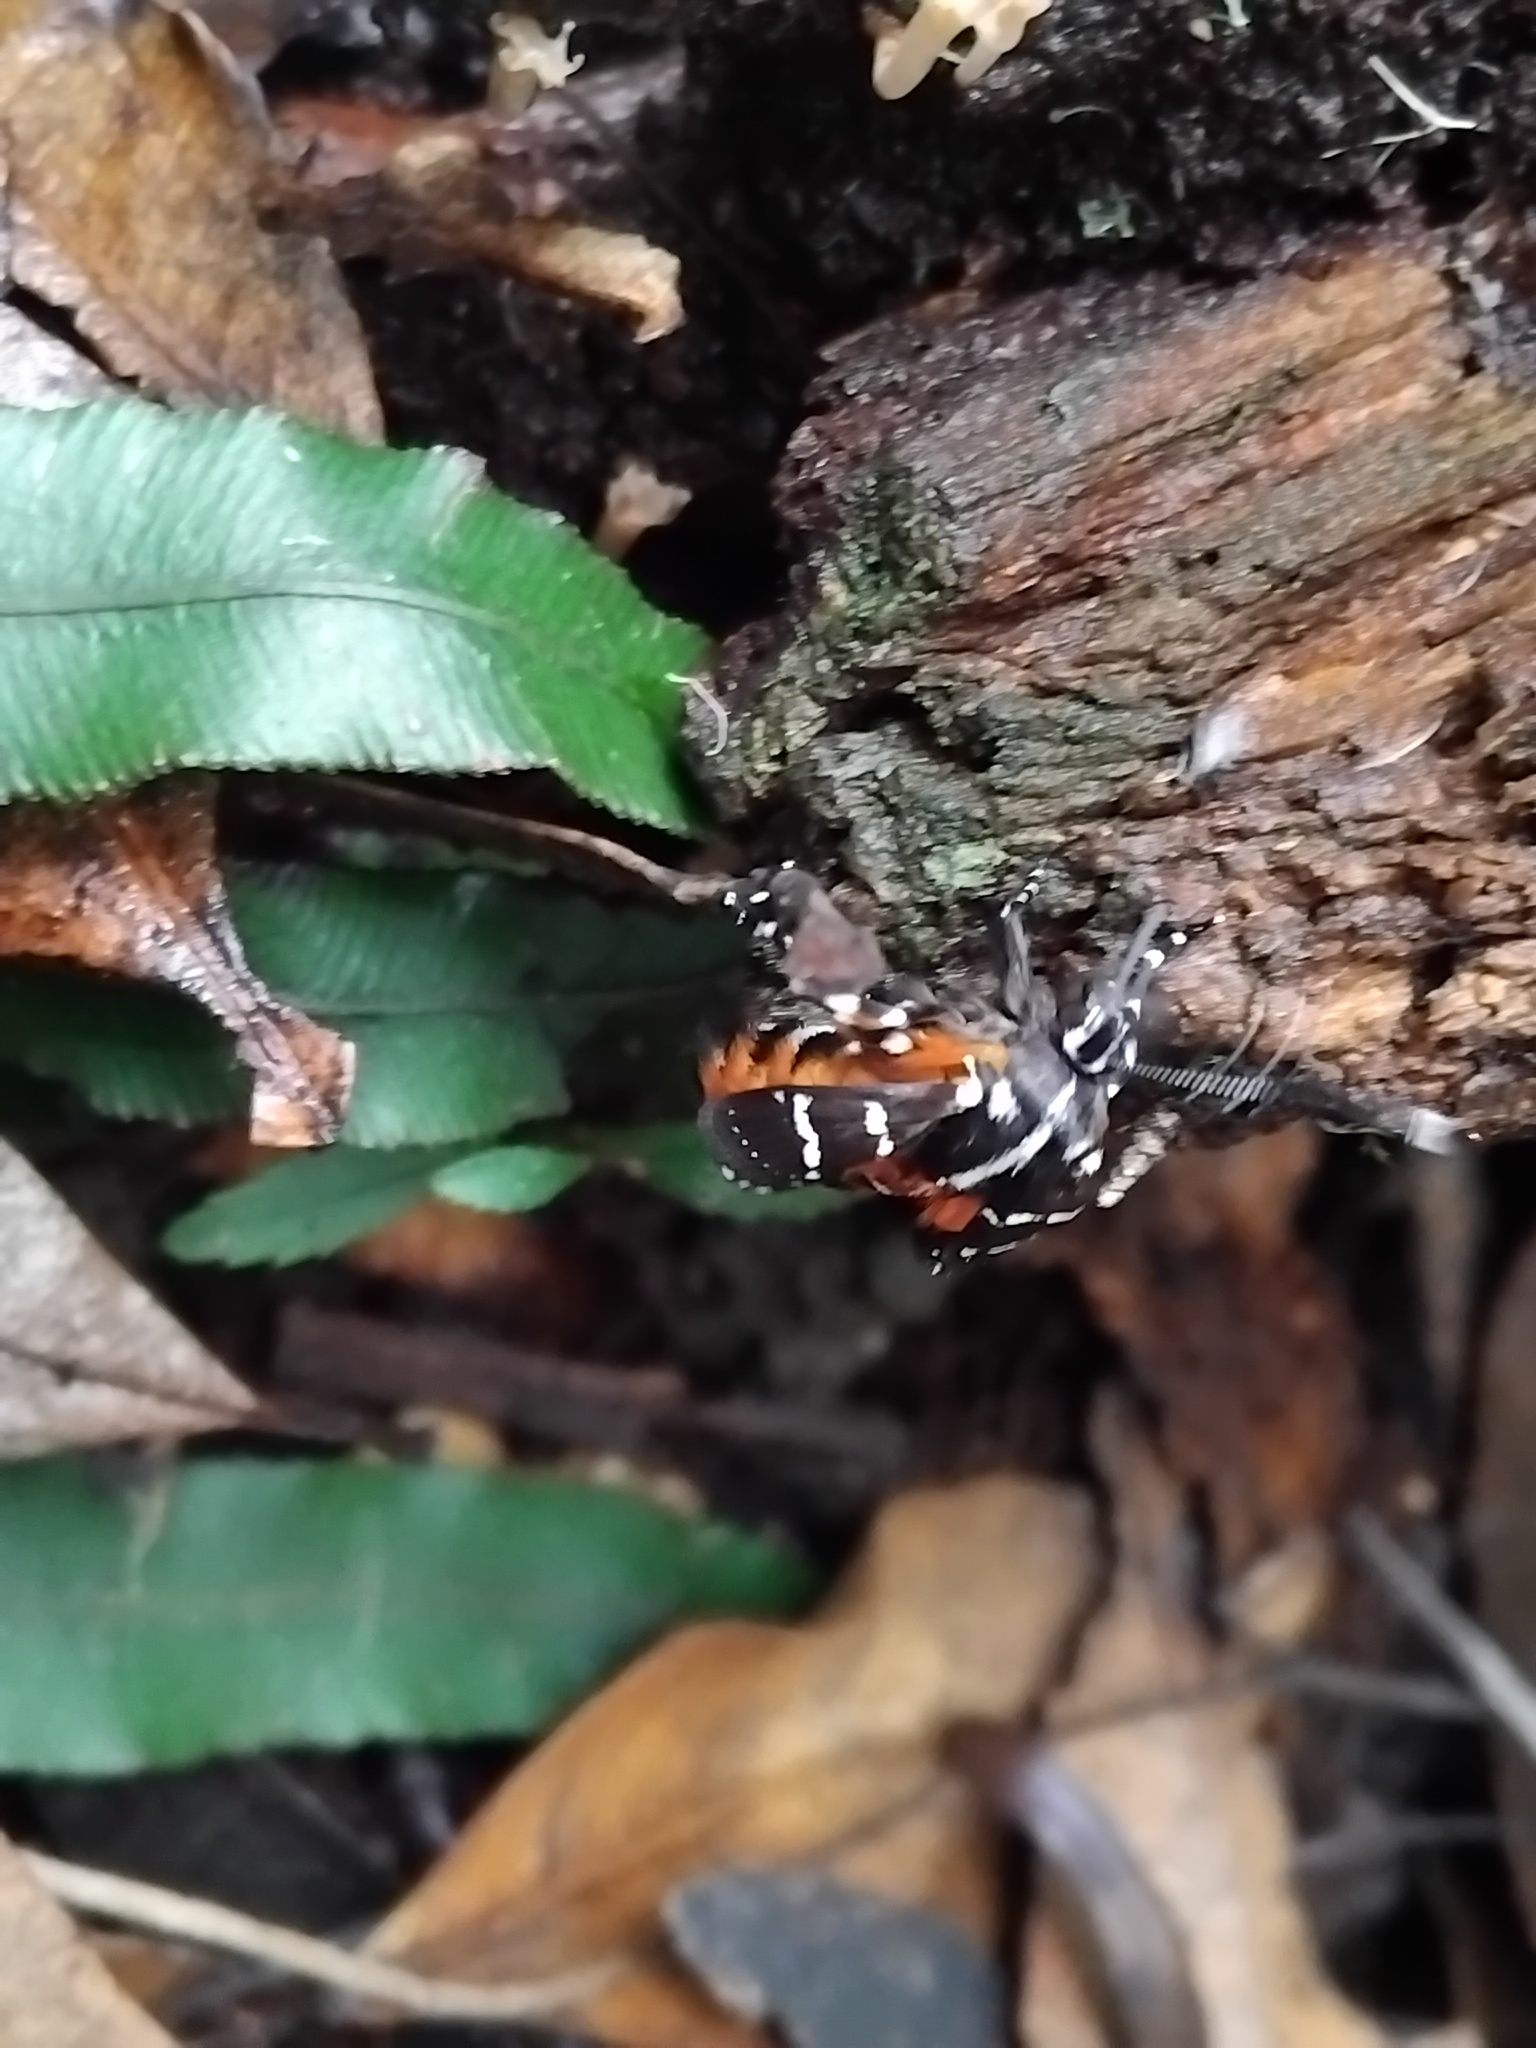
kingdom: Animalia
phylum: Arthropoda
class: Insecta
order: Lepidoptera
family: Noctuidae
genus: Hecatesia
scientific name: Hecatesia fenestrata
